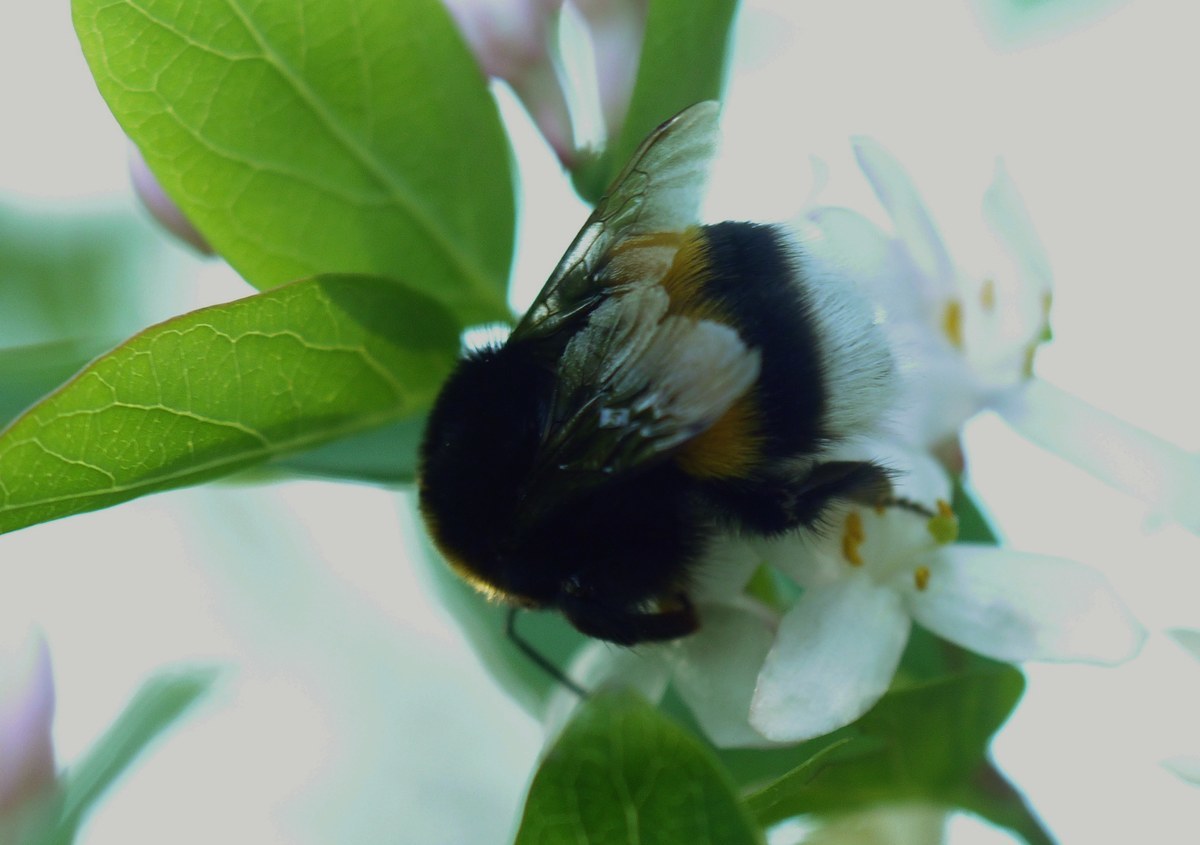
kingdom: Animalia
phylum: Arthropoda
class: Insecta
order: Hymenoptera
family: Apidae
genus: Bombus
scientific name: Bombus
